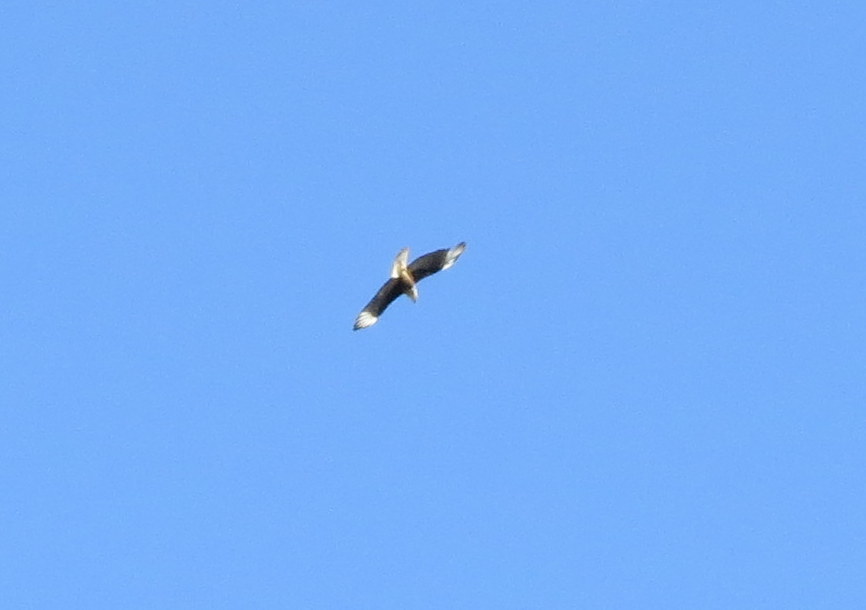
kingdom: Animalia
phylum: Chordata
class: Aves
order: Falconiformes
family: Falconidae
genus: Caracara
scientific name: Caracara plancus
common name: Southern caracara
